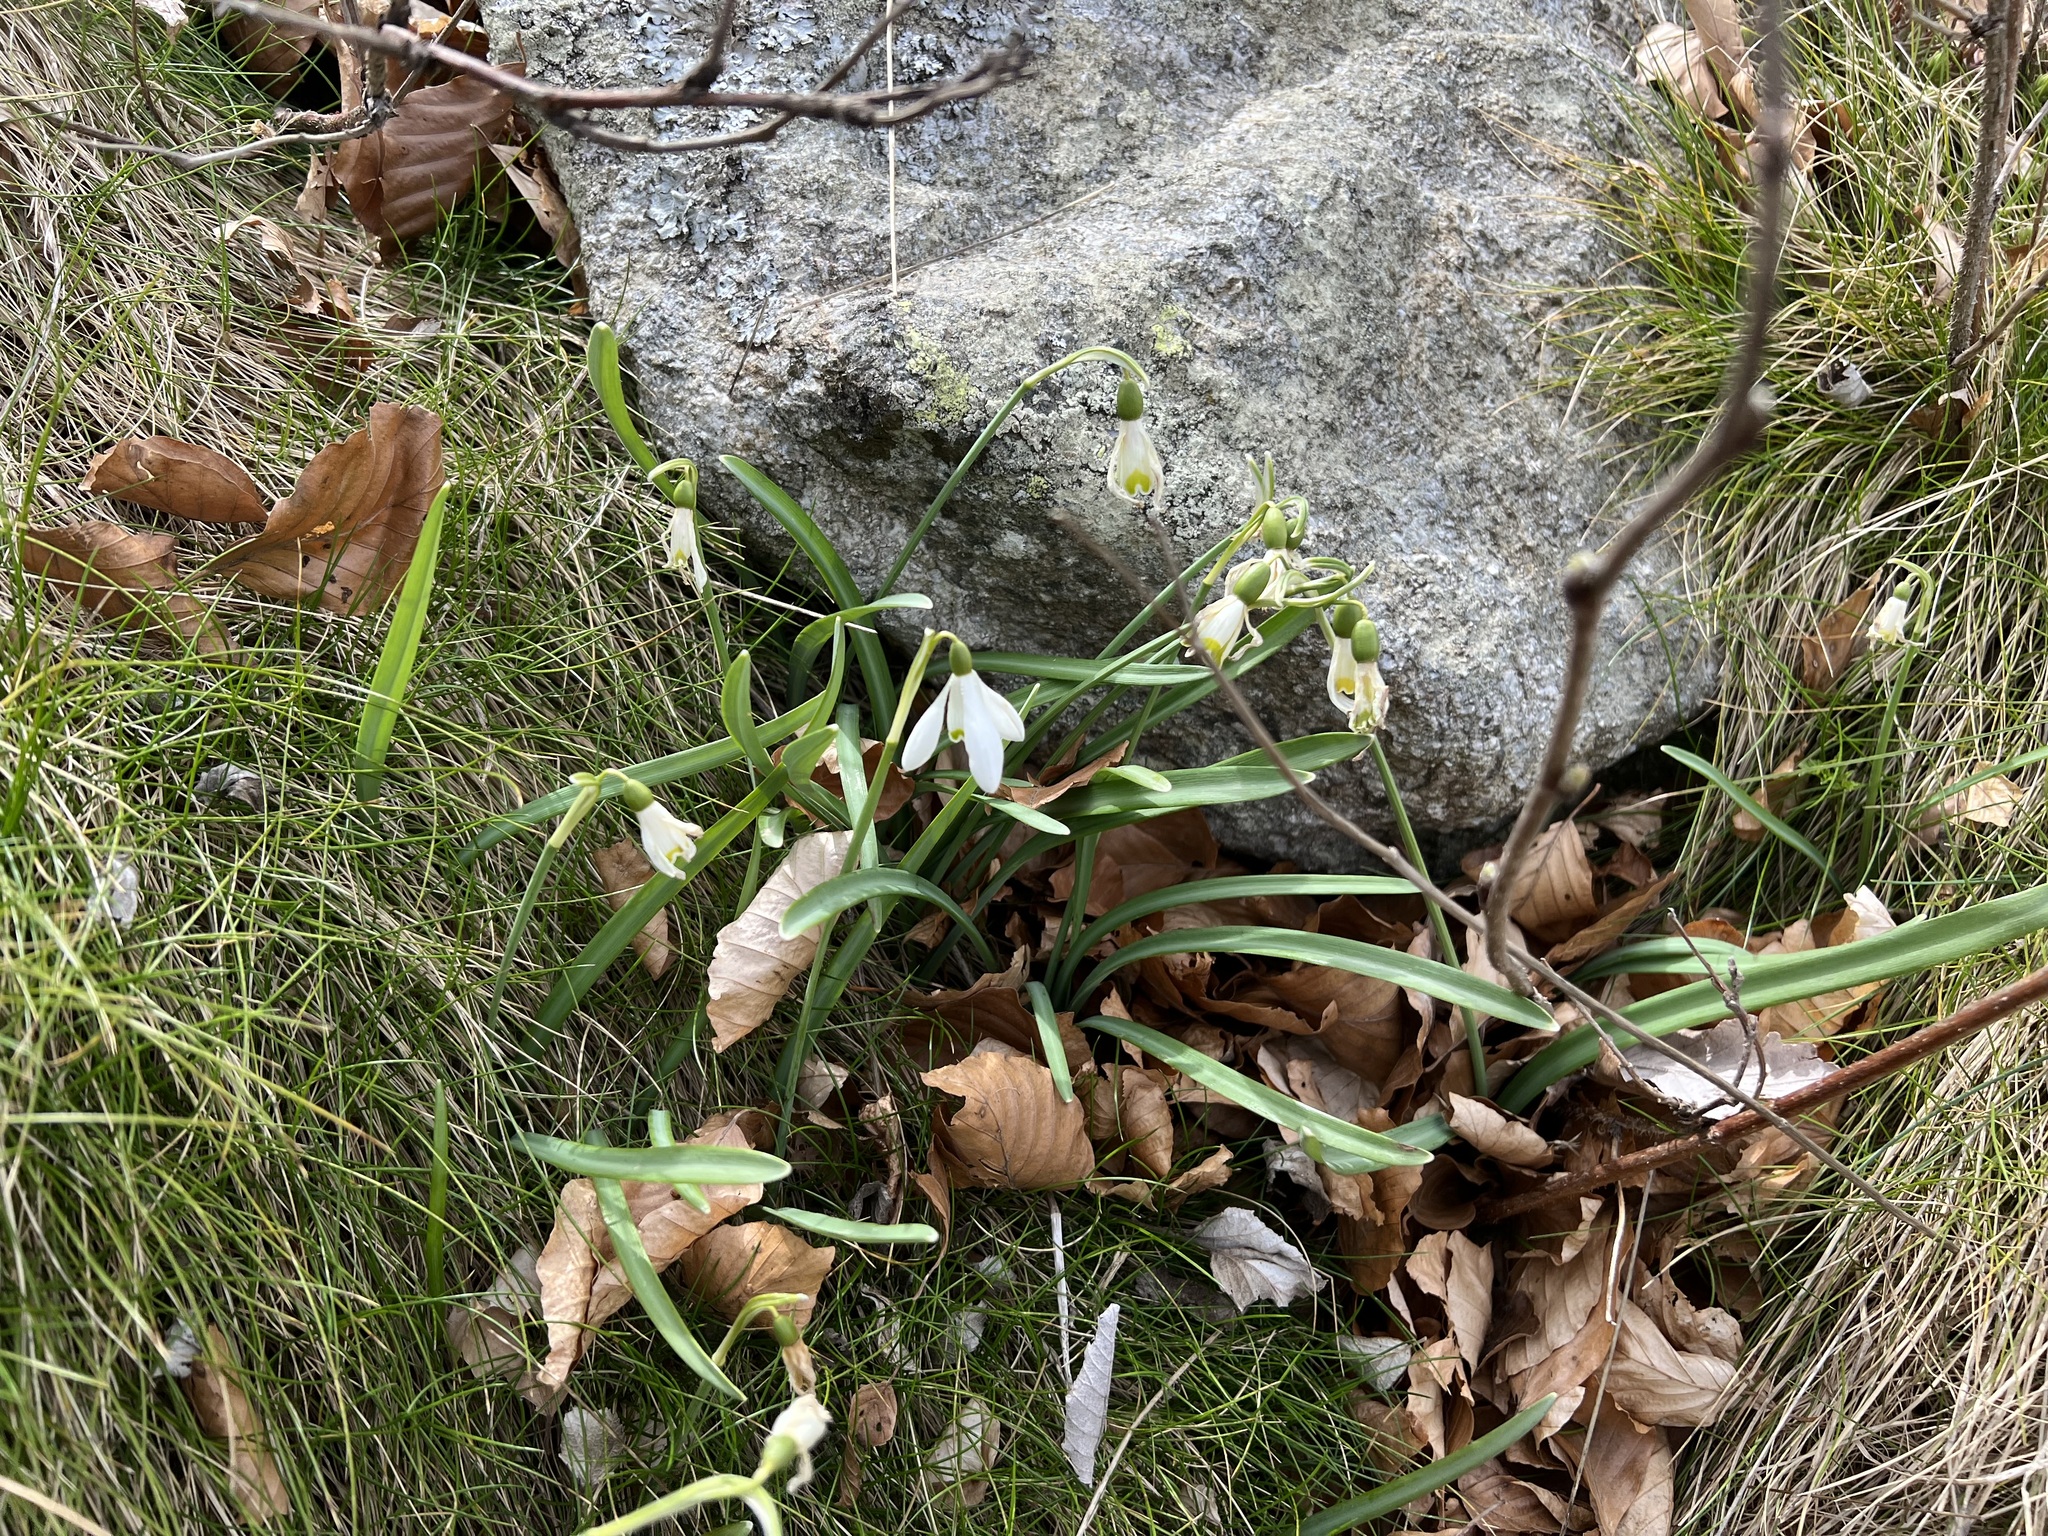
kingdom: Plantae
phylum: Tracheophyta
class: Liliopsida
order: Asparagales
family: Amaryllidaceae
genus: Galanthus
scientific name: Galanthus nivalis
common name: Snowdrop
